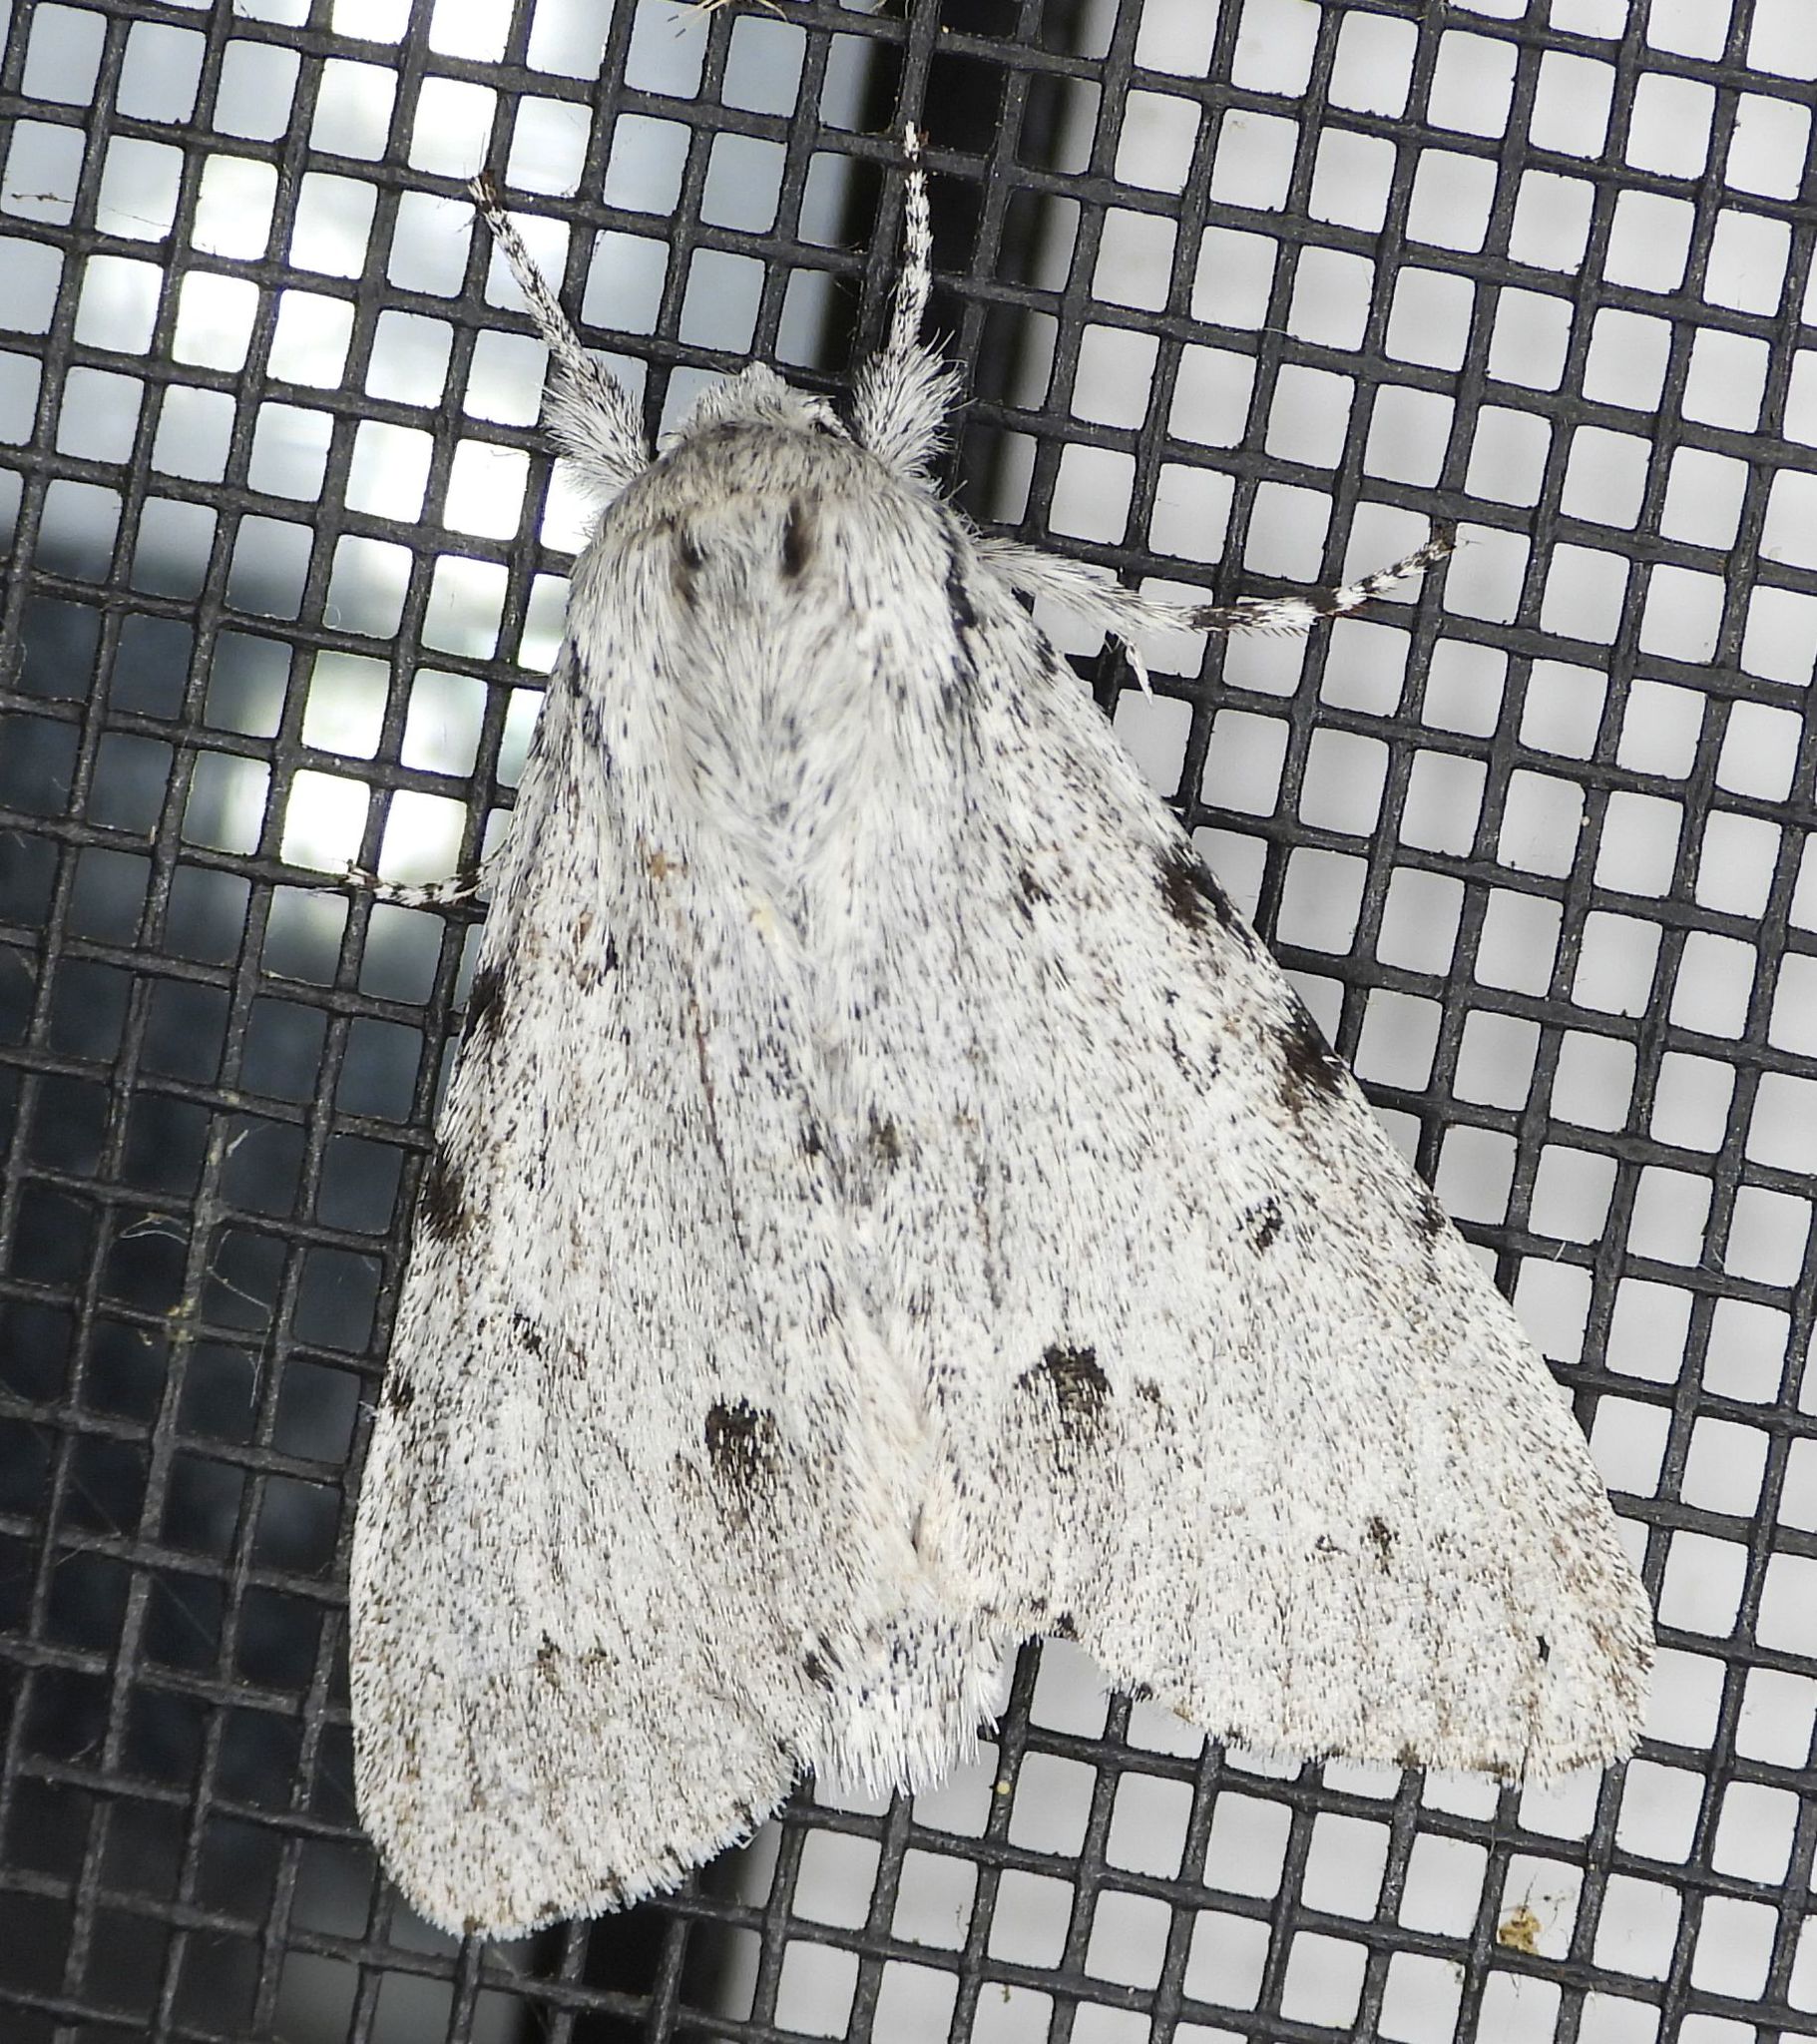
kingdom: Animalia
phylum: Arthropoda
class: Insecta
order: Lepidoptera
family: Noctuidae
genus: Acronicta
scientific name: Acronicta lepusculina
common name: Cottonwood dagger
